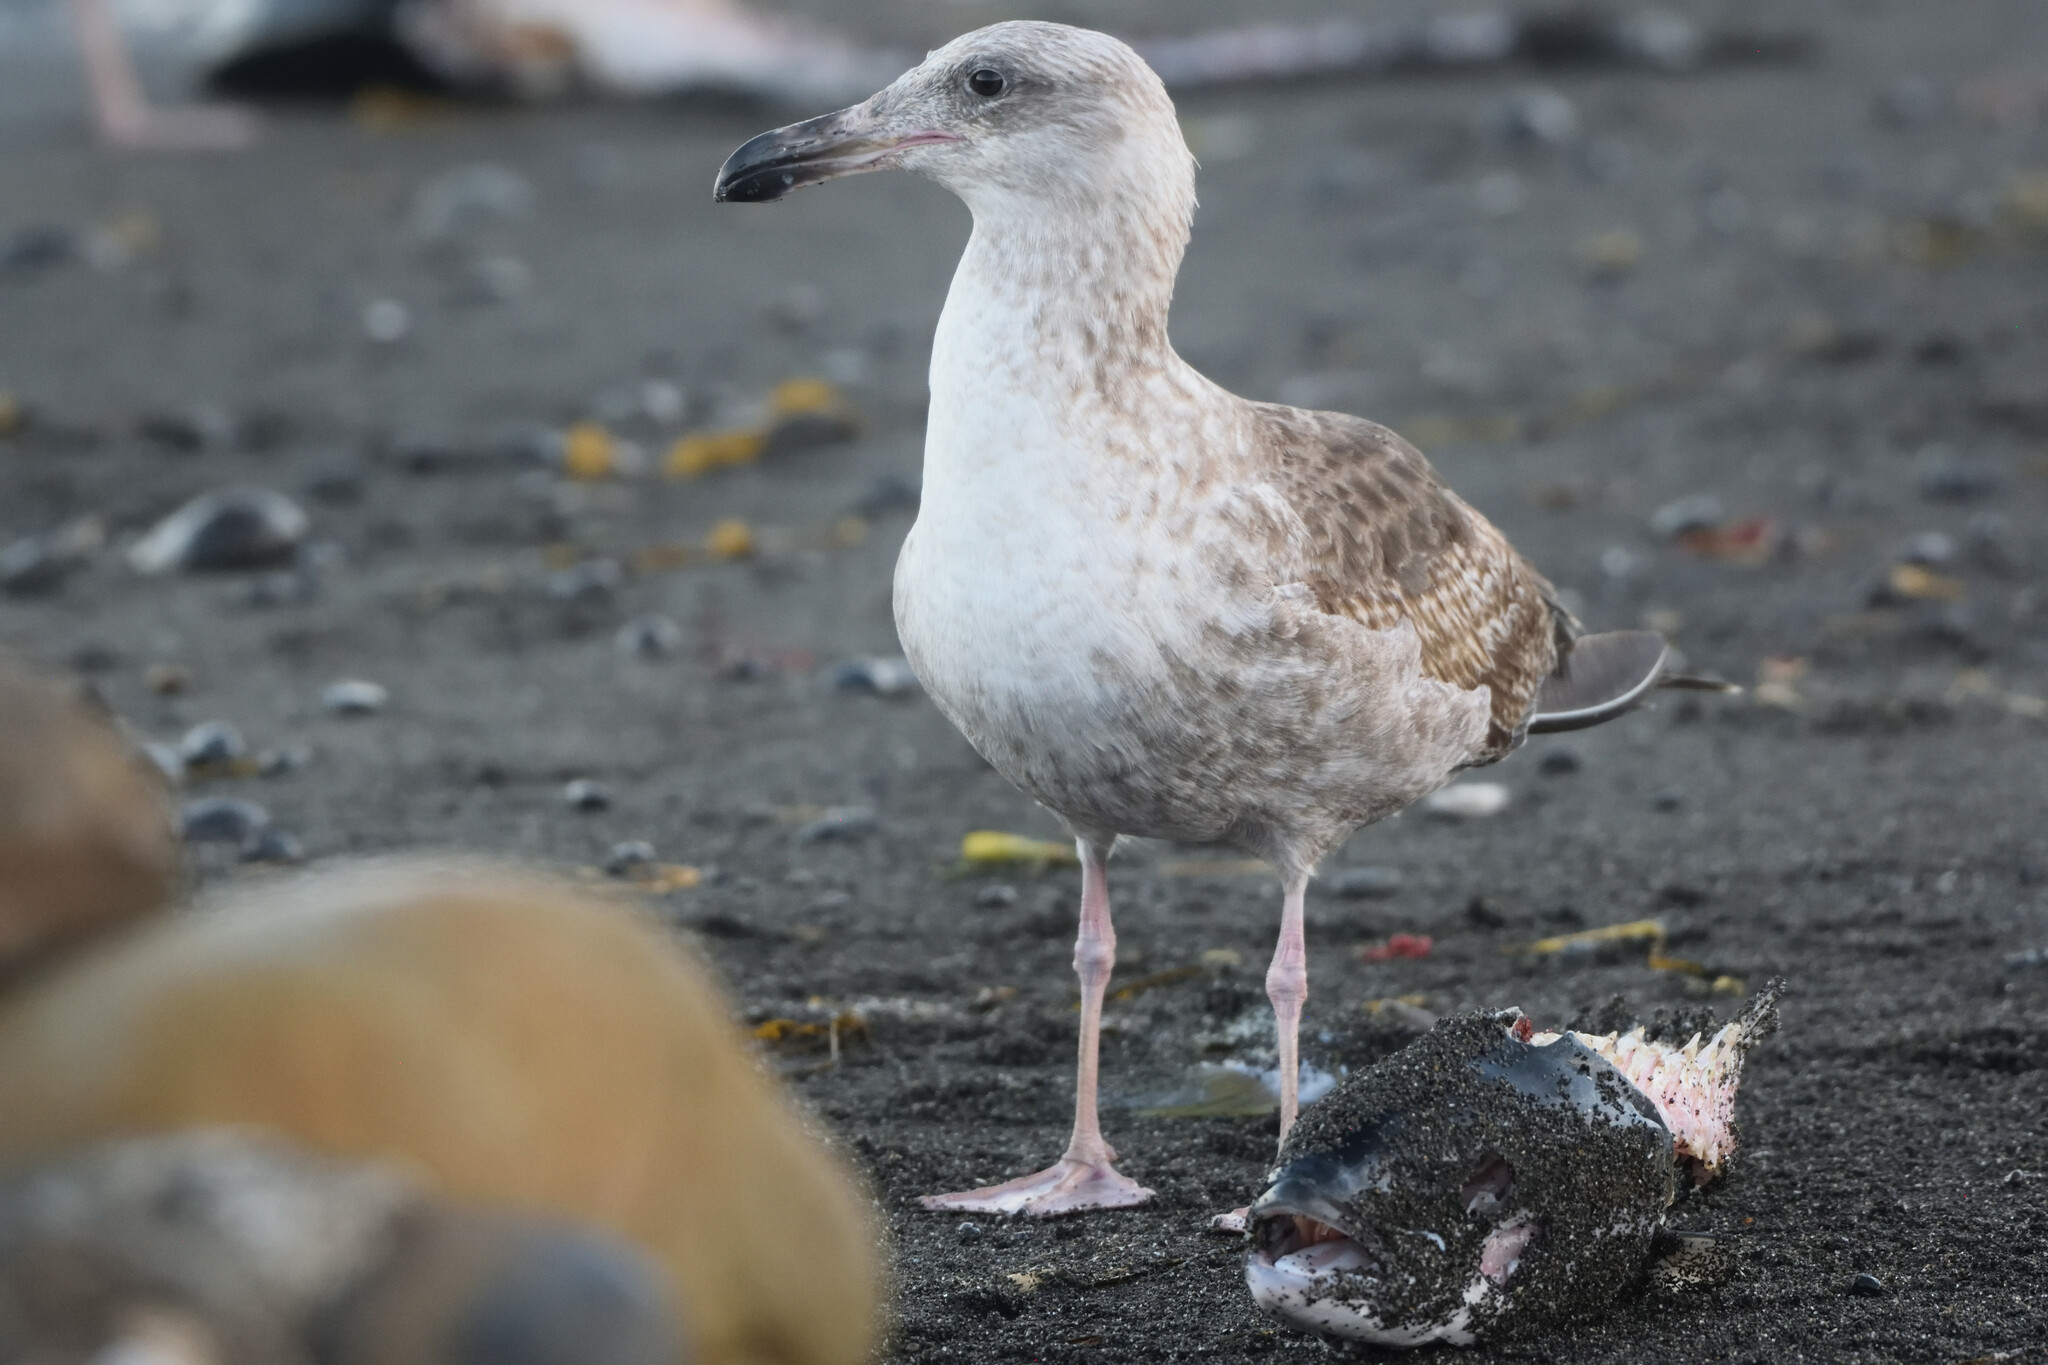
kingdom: Animalia
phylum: Chordata
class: Aves
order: Charadriiformes
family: Laridae
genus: Larus
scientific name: Larus occidentalis
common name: Western gull
